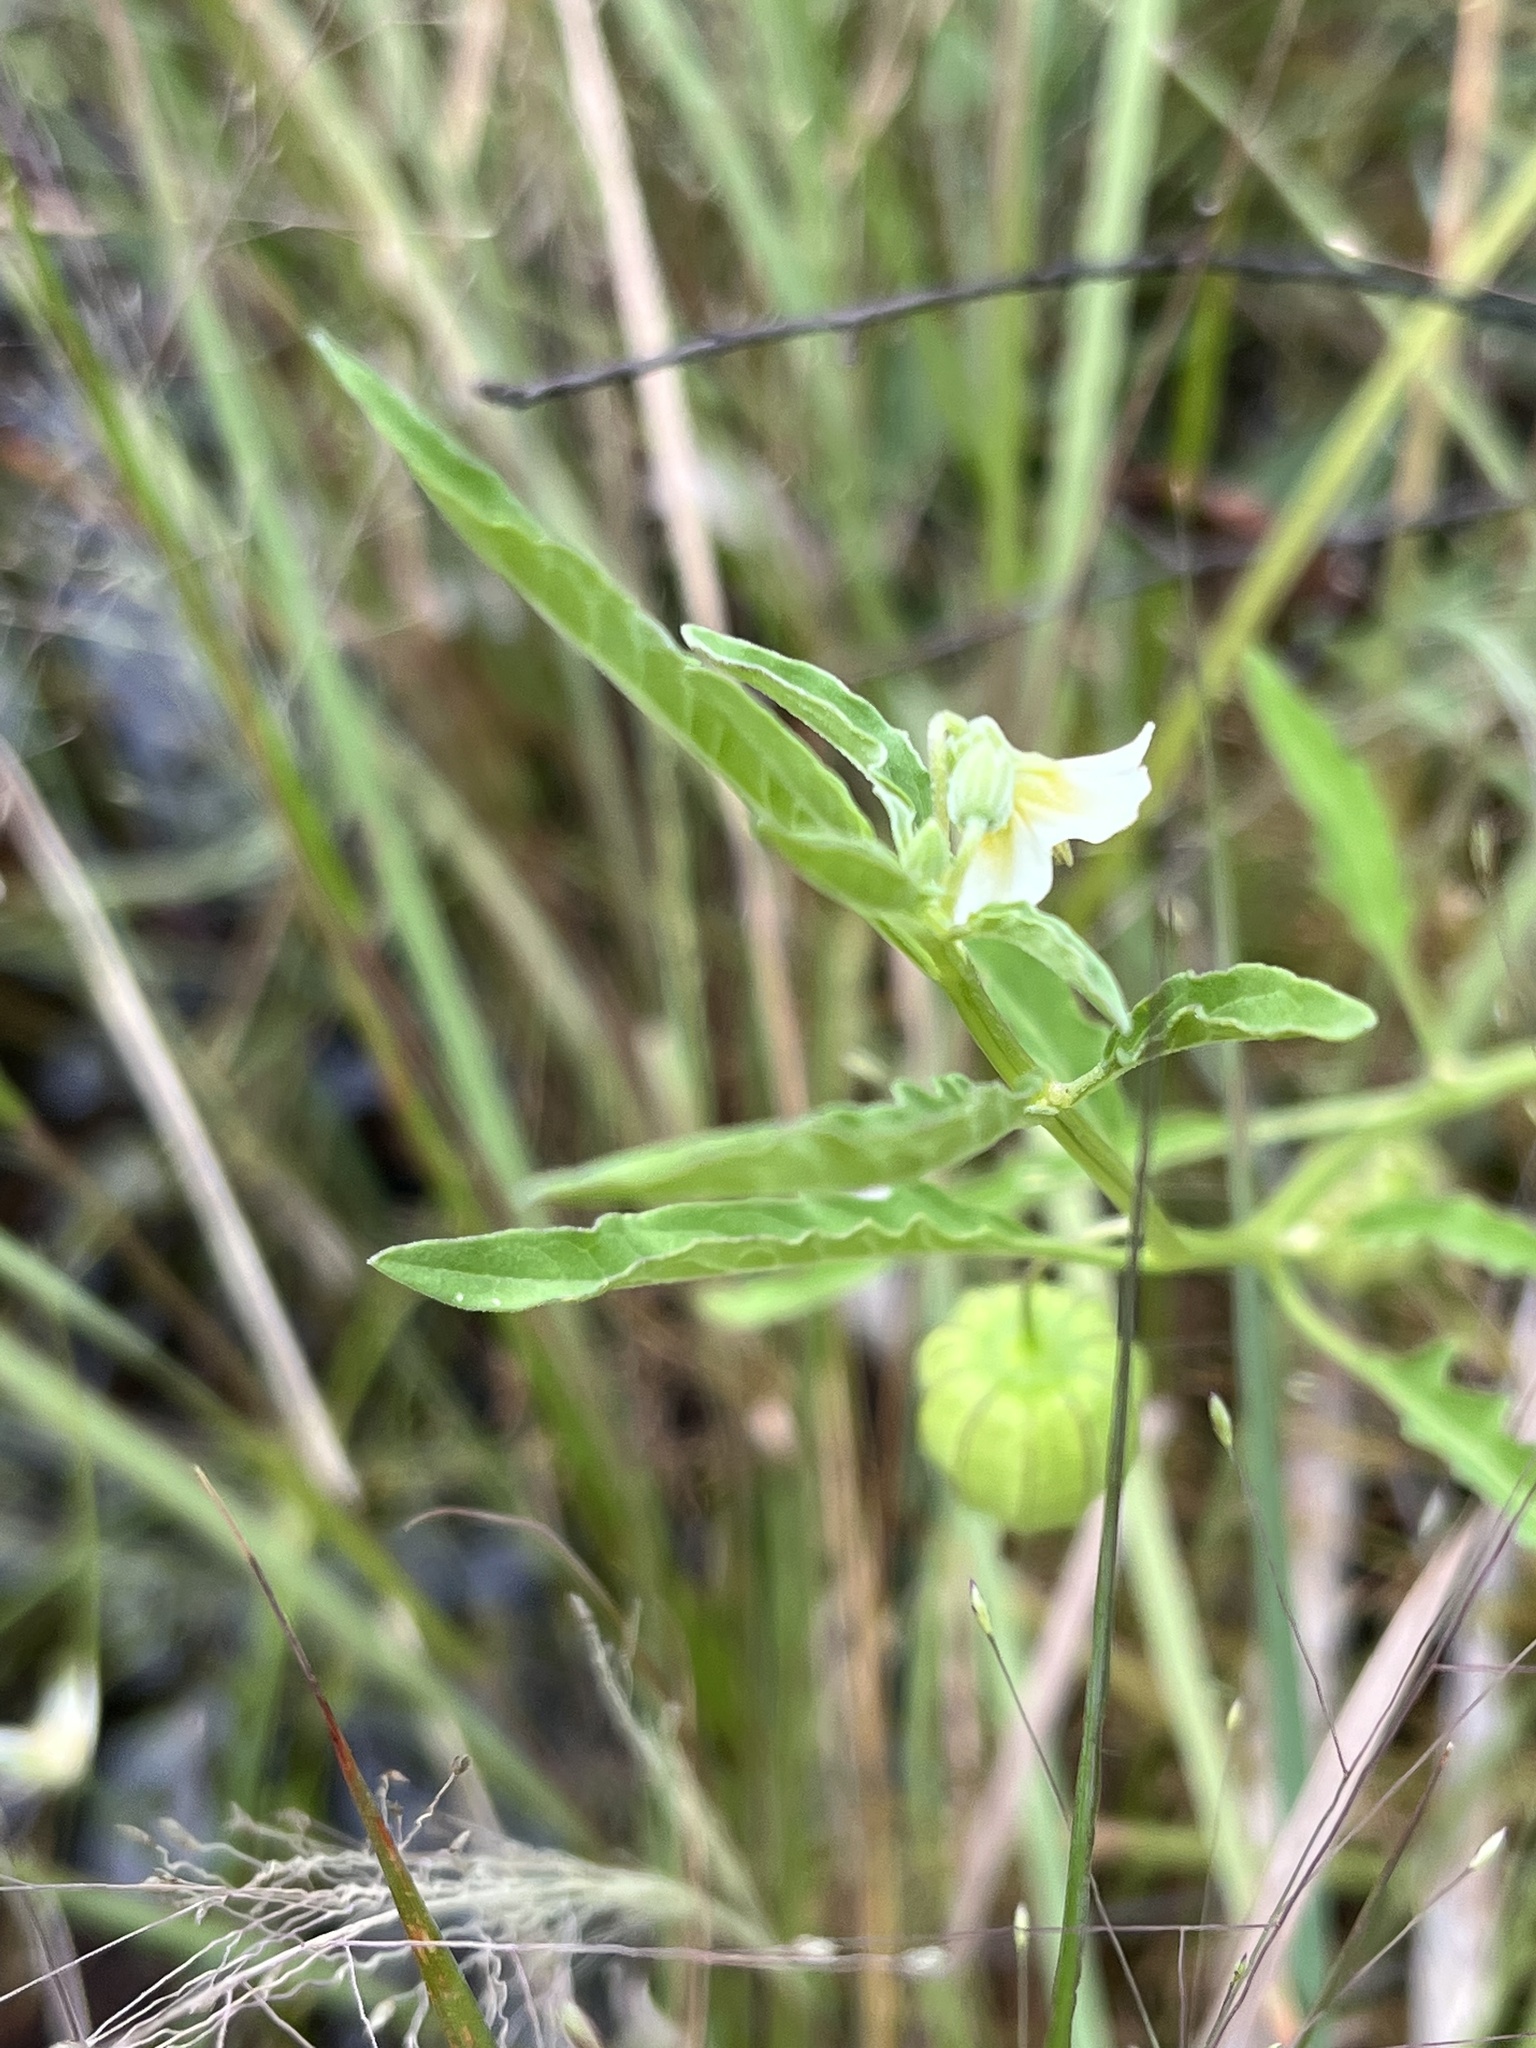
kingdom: Plantae
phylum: Tracheophyta
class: Magnoliopsida
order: Solanales
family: Solanaceae
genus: Physalis
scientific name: Physalis angulata
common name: Angular winter-cherry
